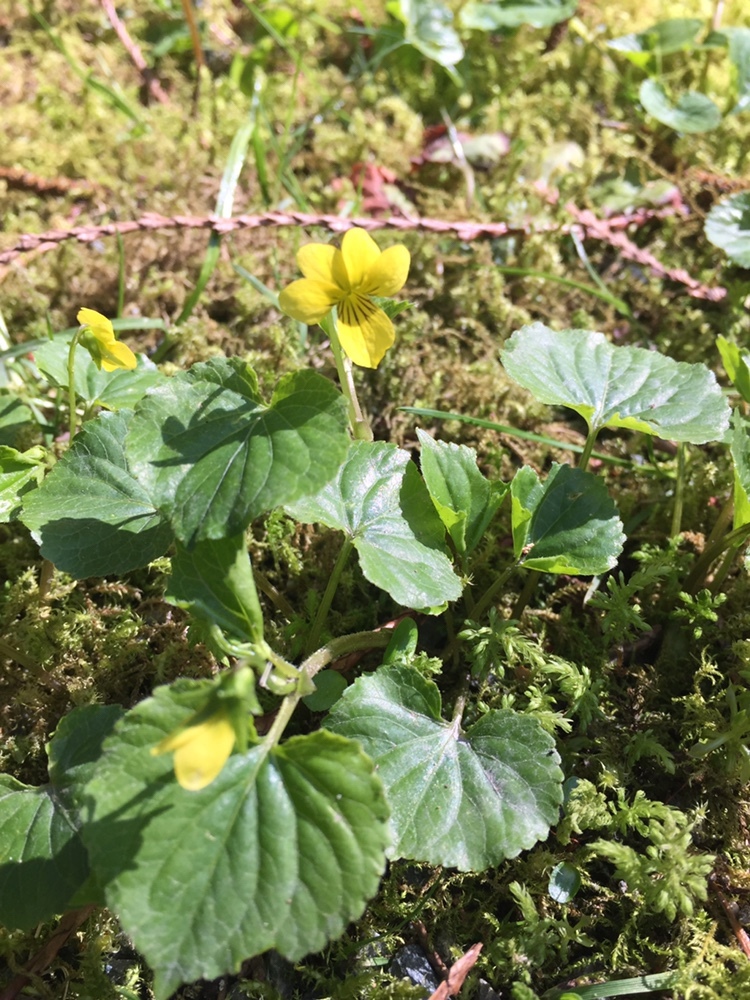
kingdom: Plantae
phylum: Tracheophyta
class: Magnoliopsida
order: Malpighiales
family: Violaceae
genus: Viola
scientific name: Viola glabella
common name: Stream violet
